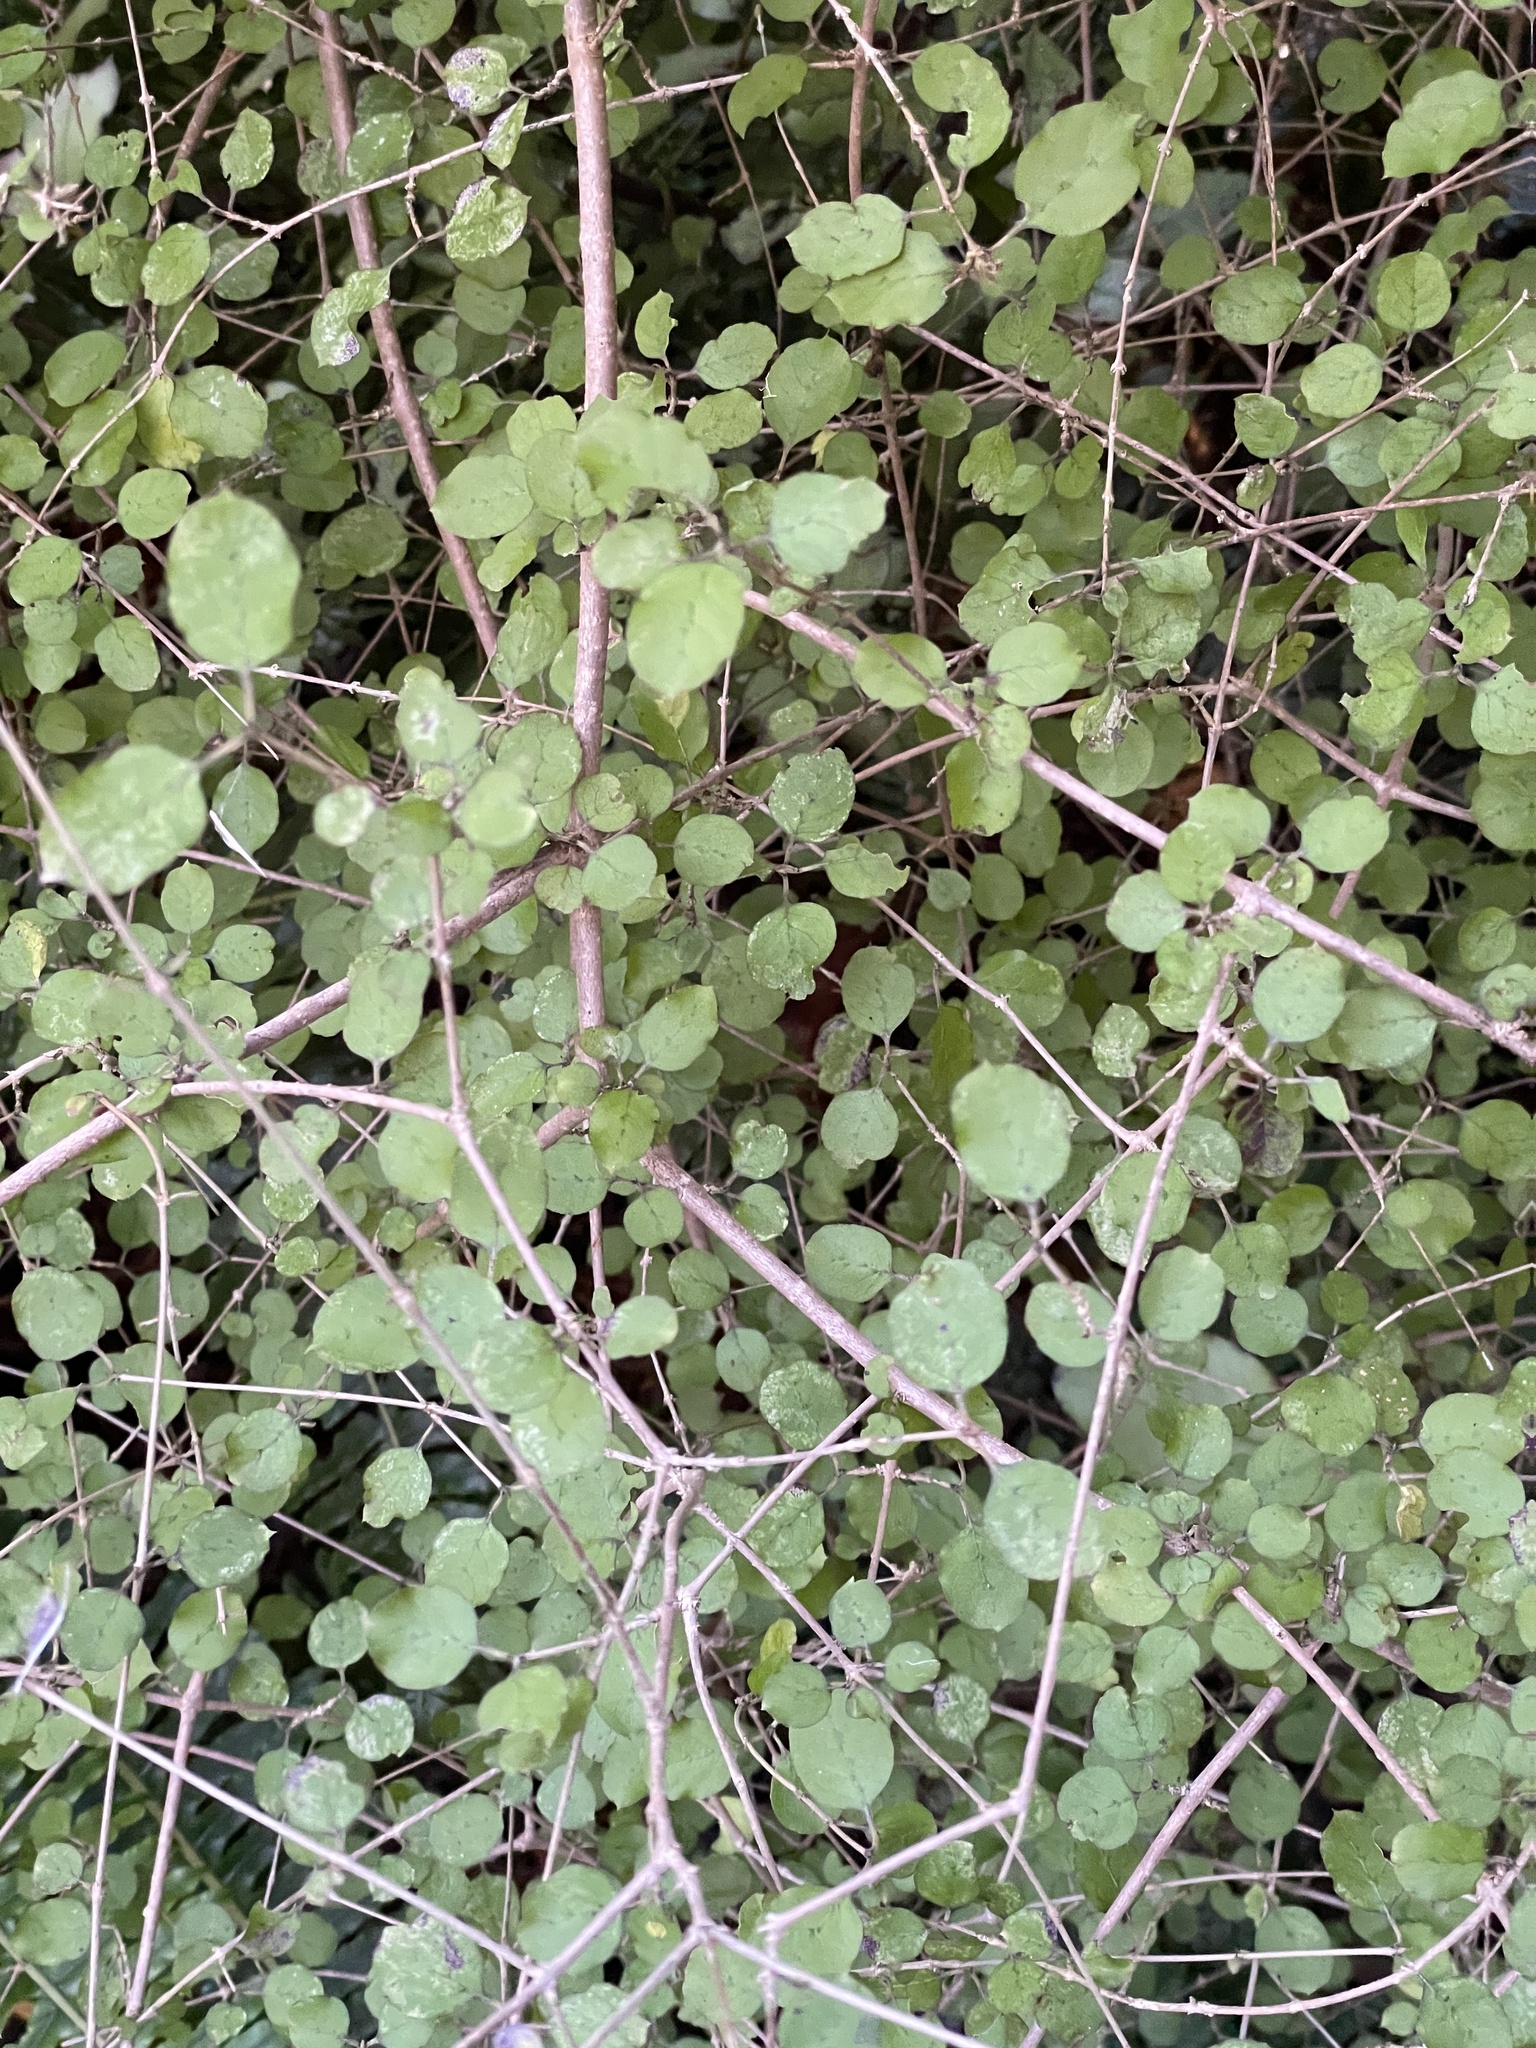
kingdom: Plantae
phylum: Tracheophyta
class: Magnoliopsida
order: Gentianales
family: Rubiaceae
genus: Coprosma
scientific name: Coprosma rotundifolia
